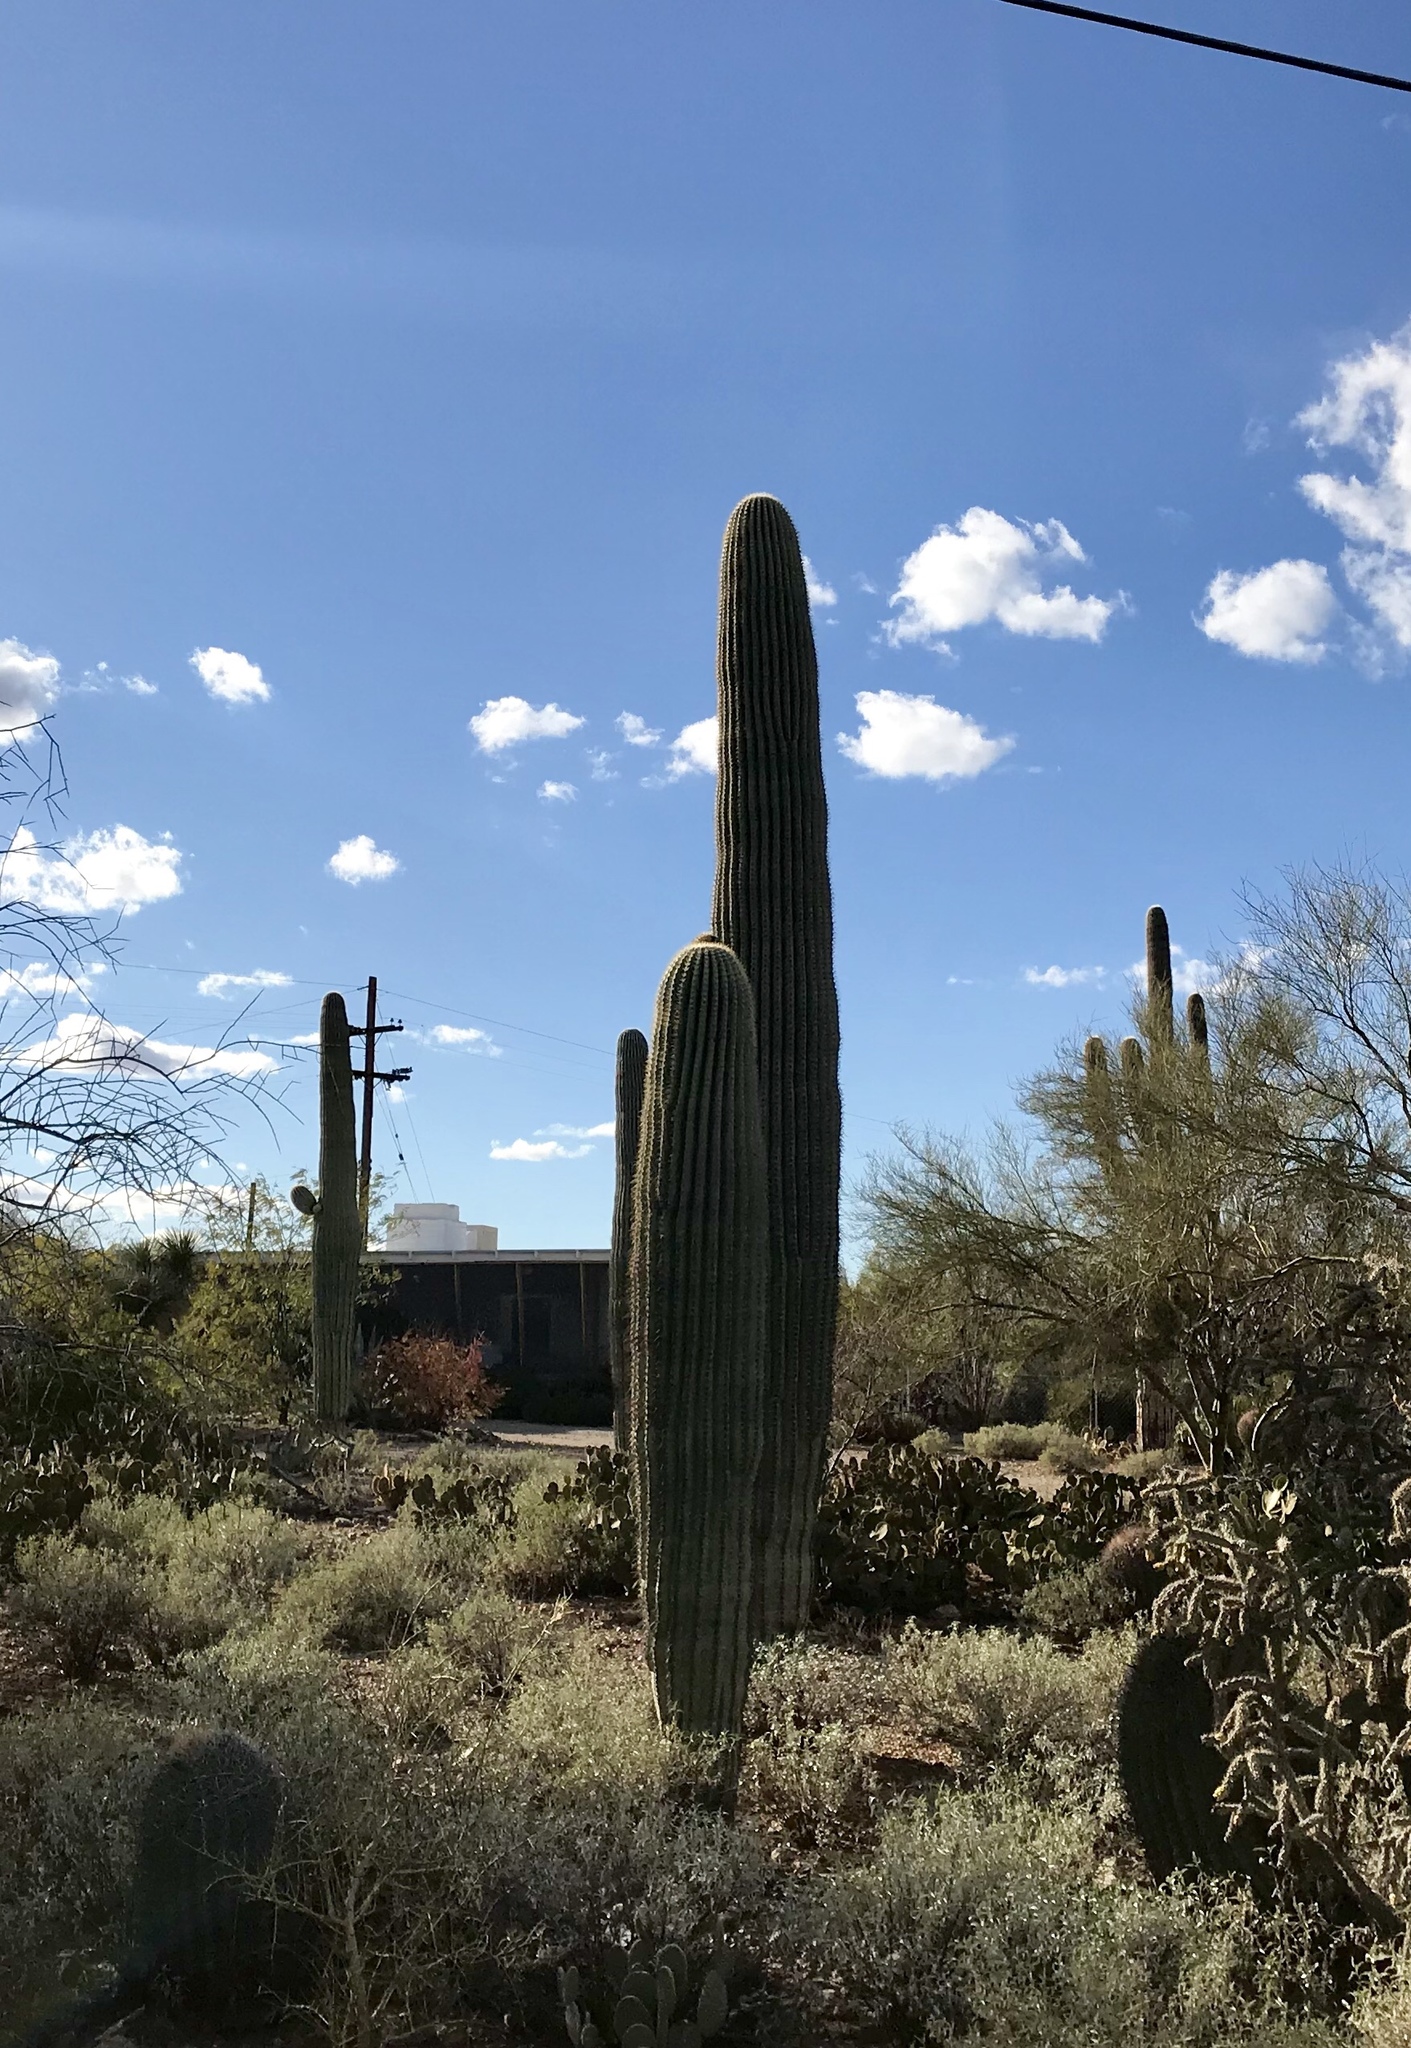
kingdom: Plantae
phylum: Tracheophyta
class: Magnoliopsida
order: Caryophyllales
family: Cactaceae
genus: Carnegiea
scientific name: Carnegiea gigantea
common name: Saguaro
